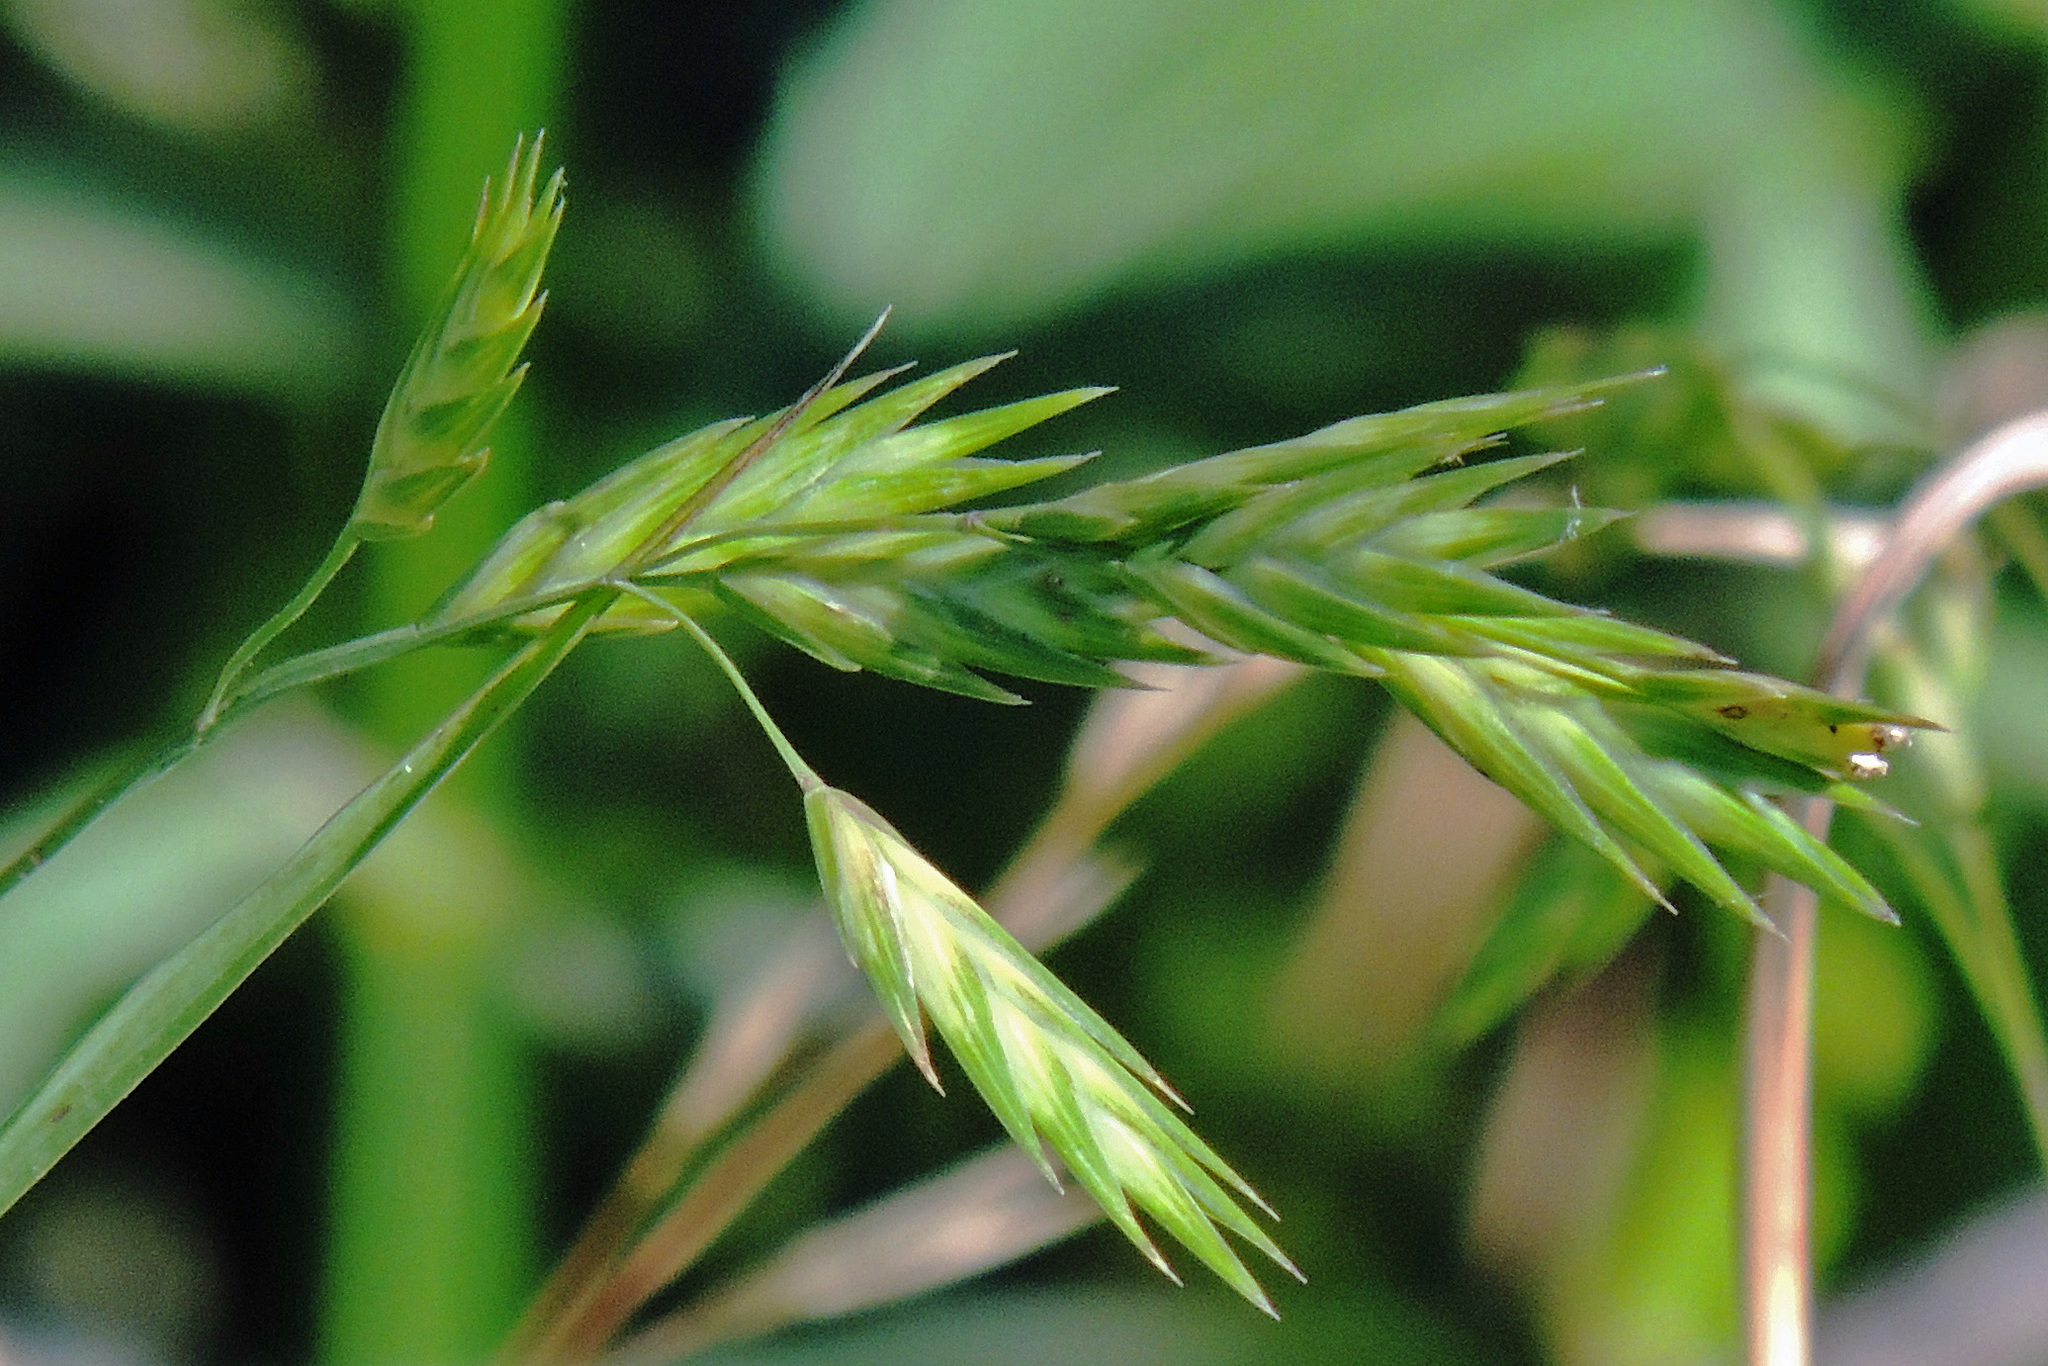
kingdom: Plantae
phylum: Tracheophyta
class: Liliopsida
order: Poales
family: Poaceae
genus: Bromus
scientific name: Bromus catharticus
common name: Rescuegrass
